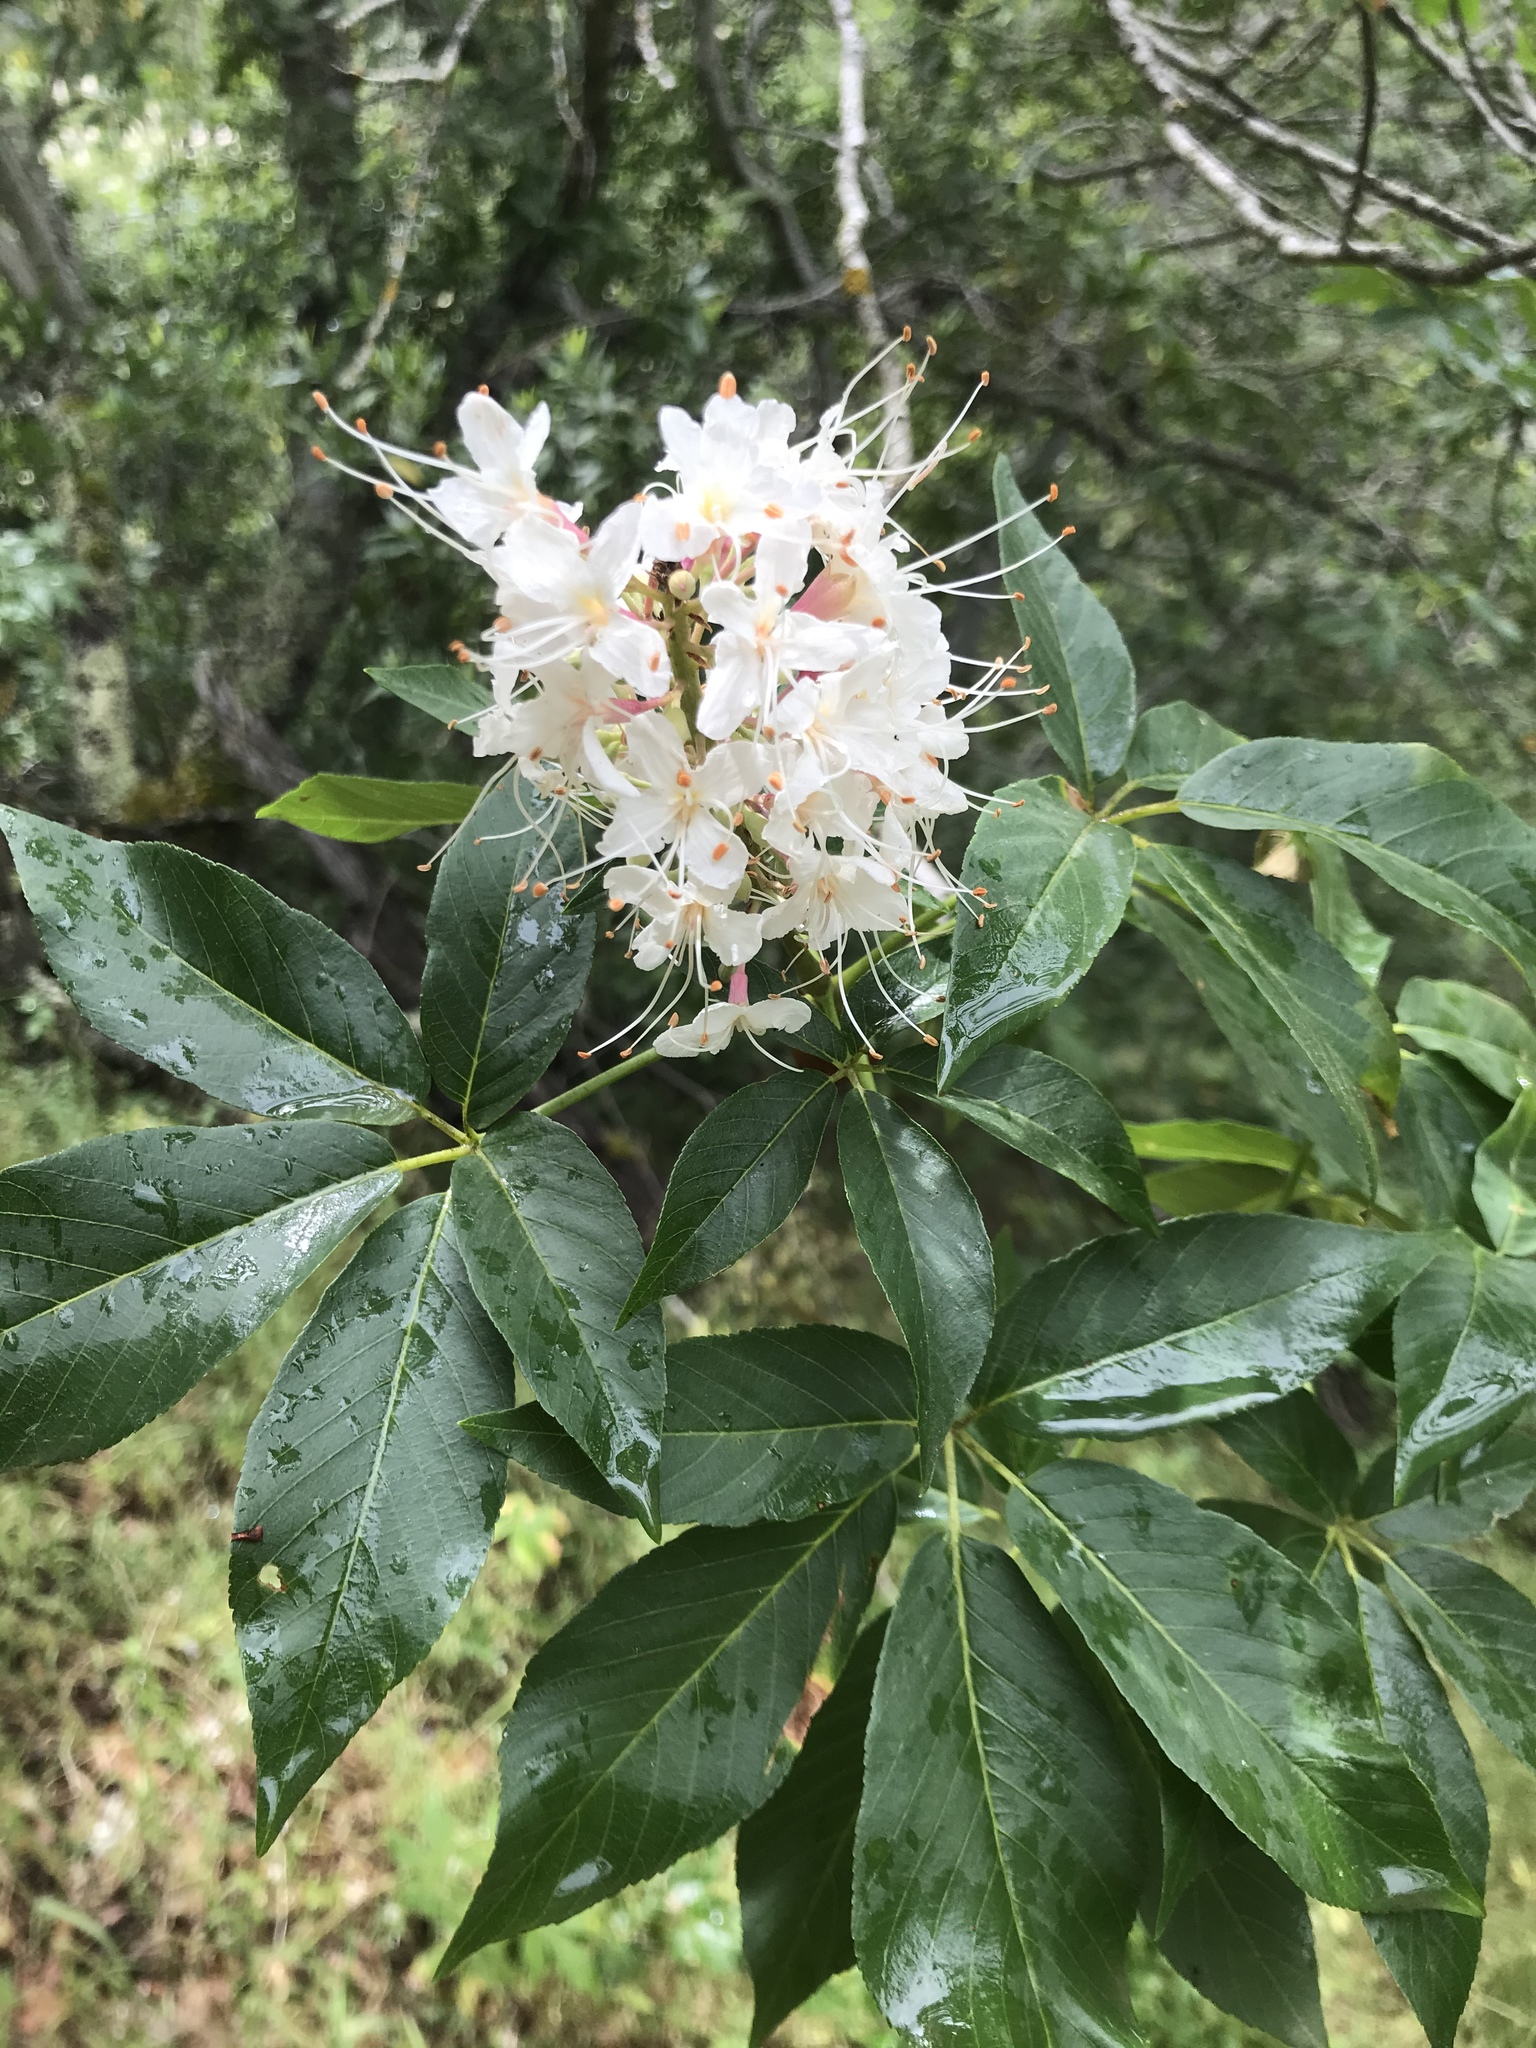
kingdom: Plantae
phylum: Tracheophyta
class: Magnoliopsida
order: Sapindales
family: Sapindaceae
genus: Aesculus
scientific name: Aesculus californica
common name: California buckeye
